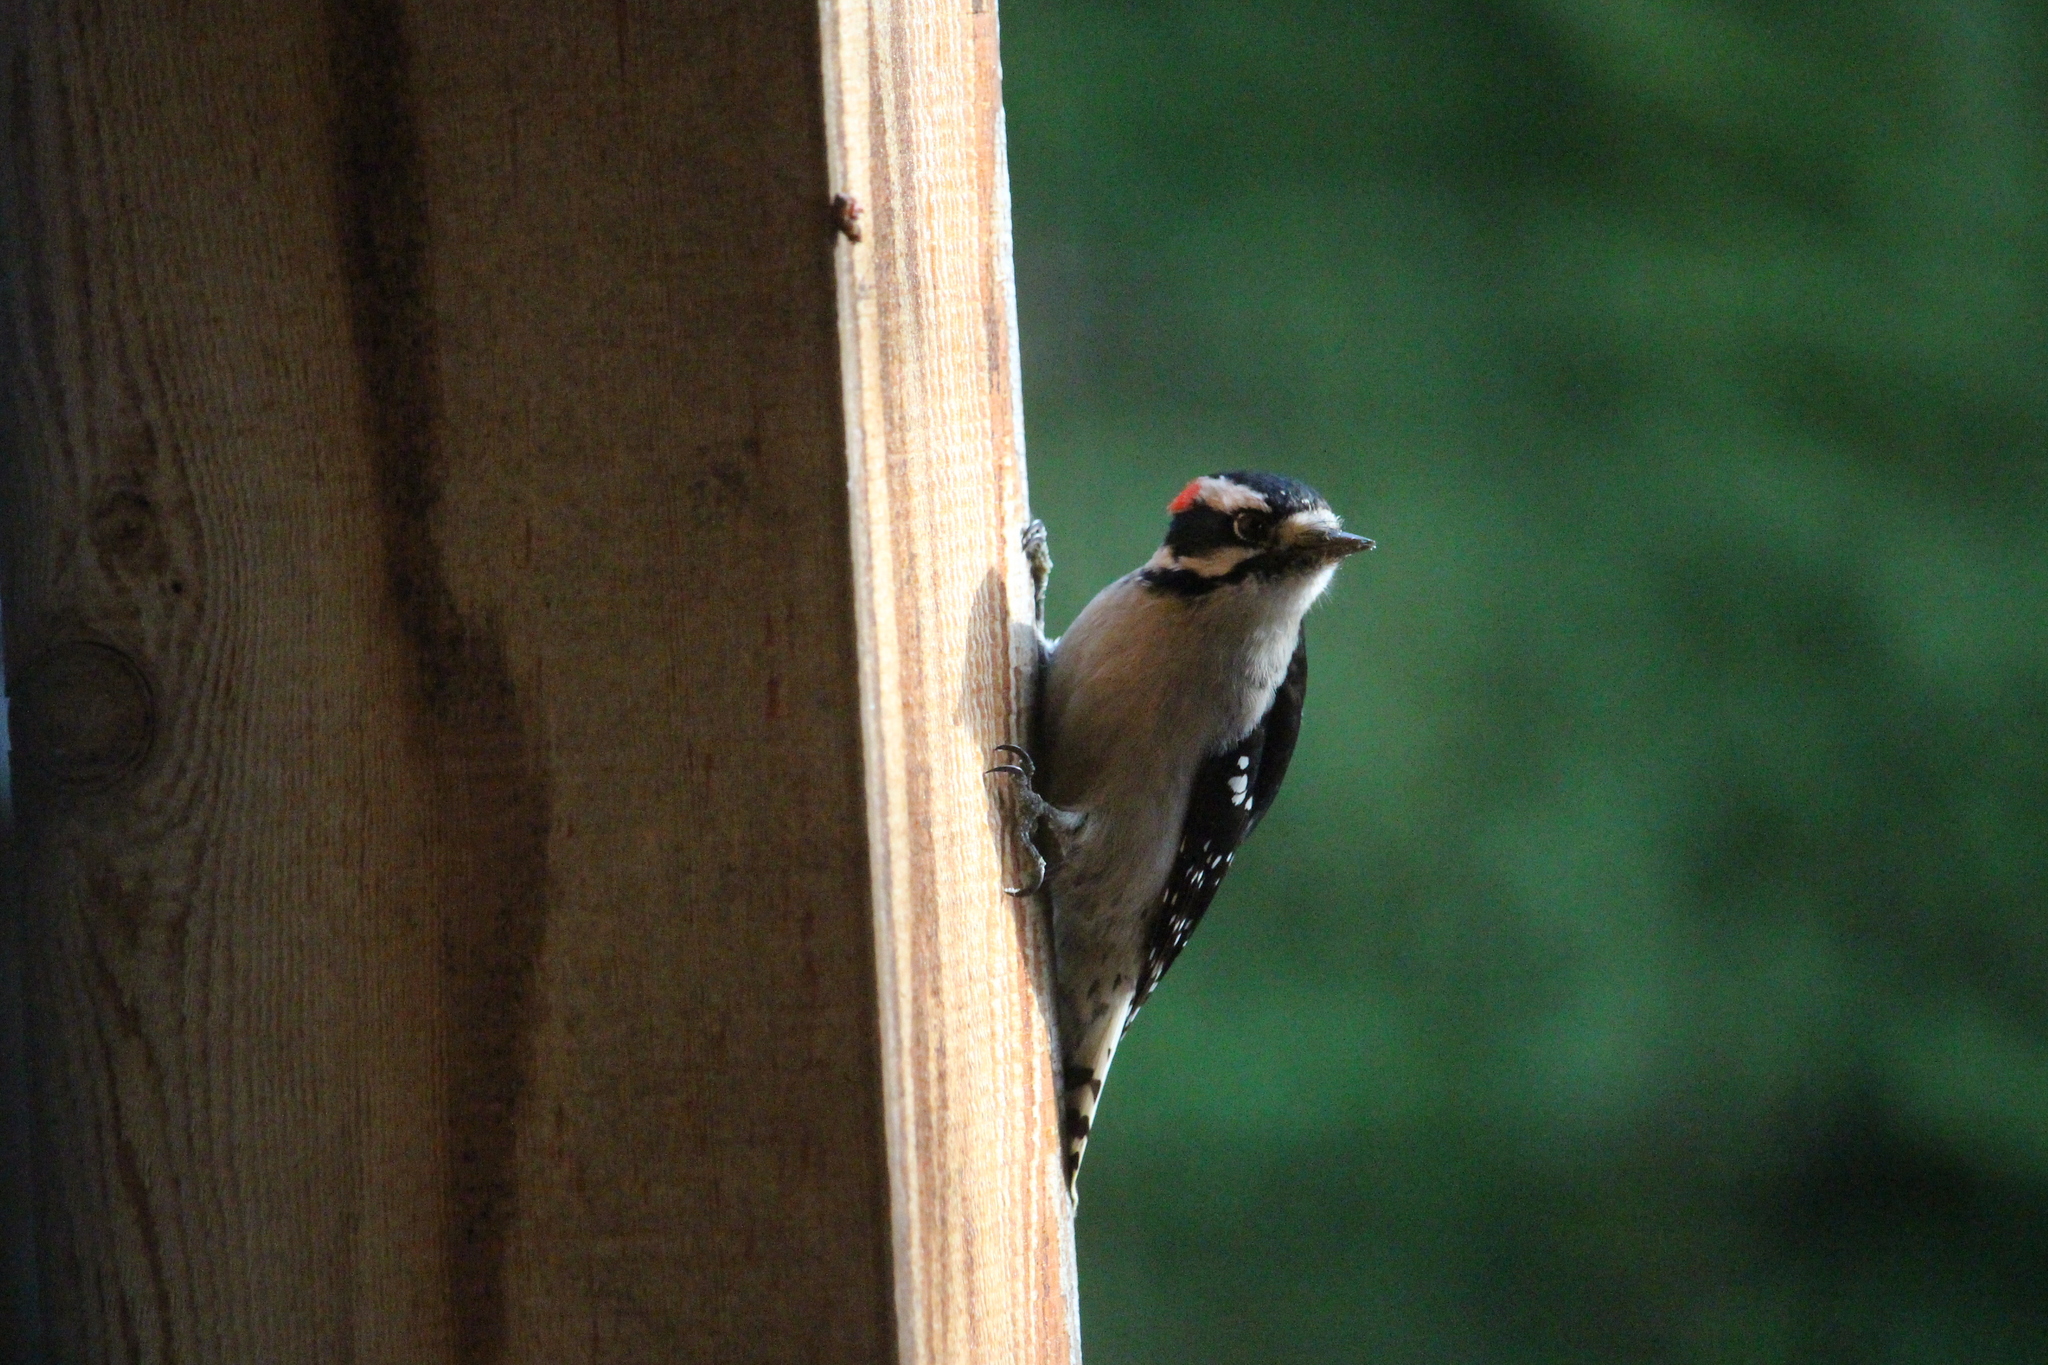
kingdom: Animalia
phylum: Chordata
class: Aves
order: Piciformes
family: Picidae
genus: Dryobates
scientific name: Dryobates pubescens
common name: Downy woodpecker
